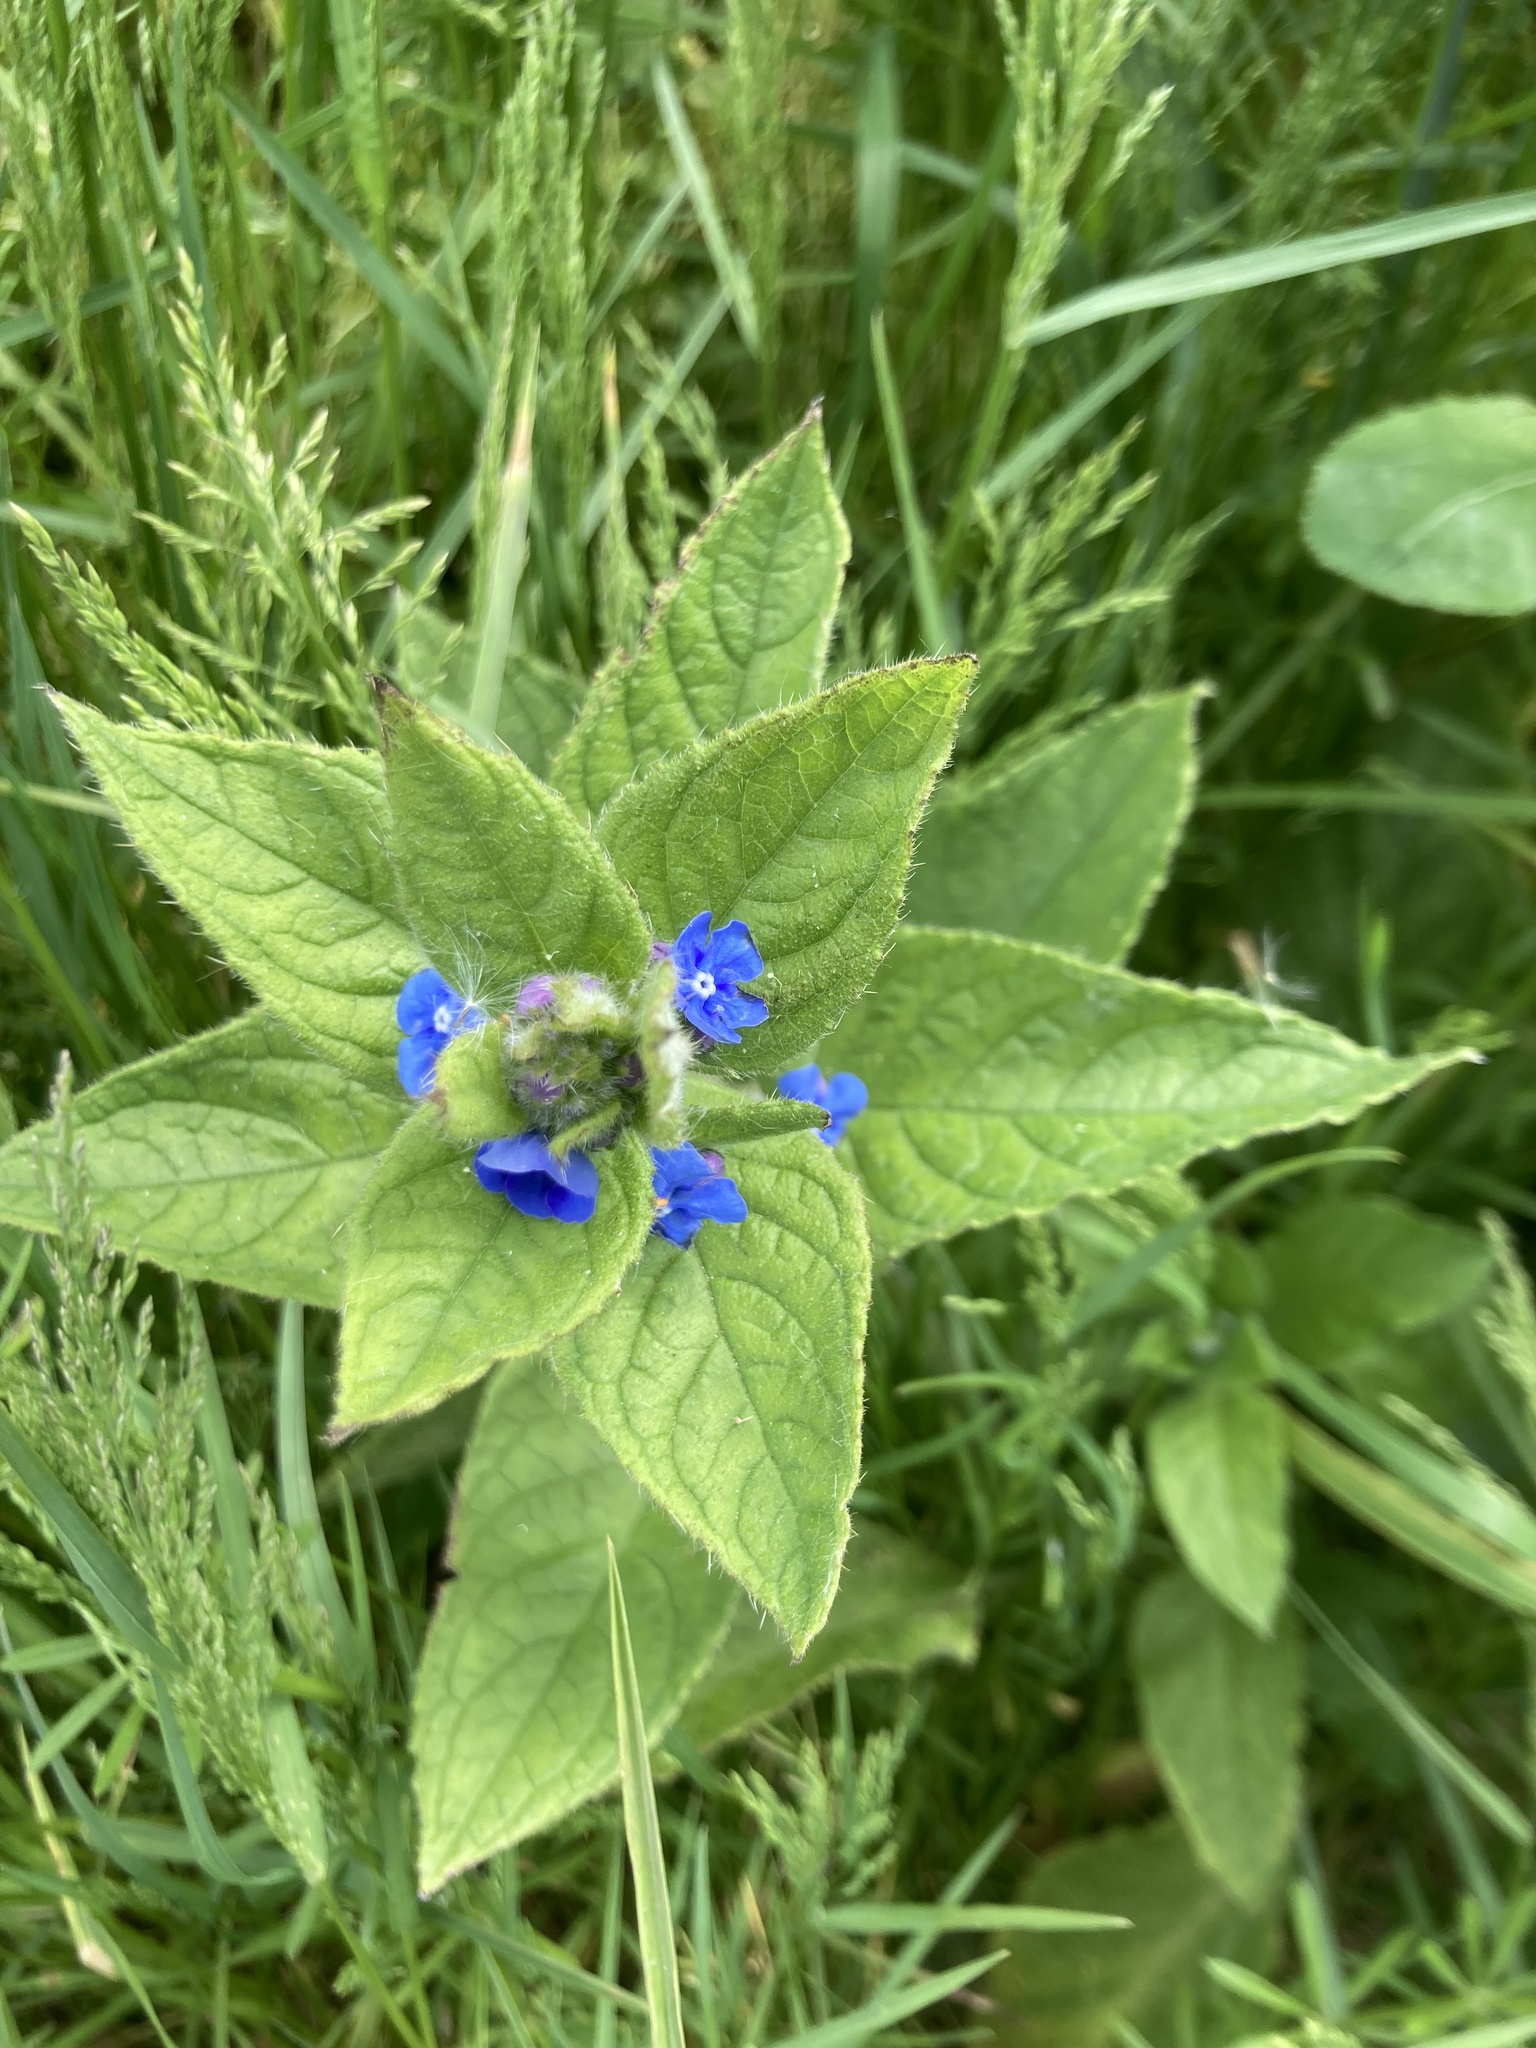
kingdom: Plantae
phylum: Tracheophyta
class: Magnoliopsida
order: Boraginales
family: Boraginaceae
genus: Pentaglottis
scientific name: Pentaglottis sempervirens
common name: Green alkanet
